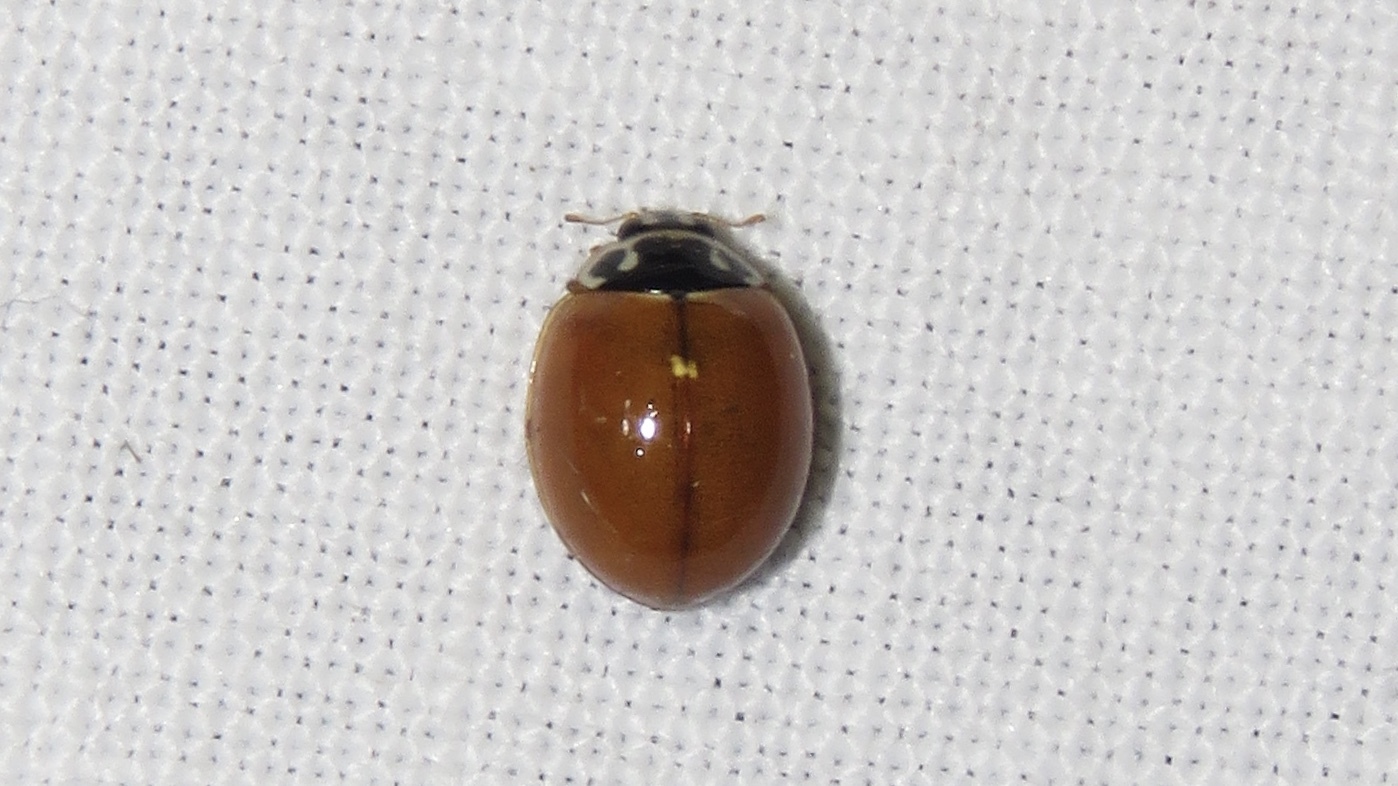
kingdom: Animalia
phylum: Arthropoda
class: Insecta
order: Coleoptera
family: Coccinellidae
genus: Cycloneda
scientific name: Cycloneda munda
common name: Polished lady beetle
